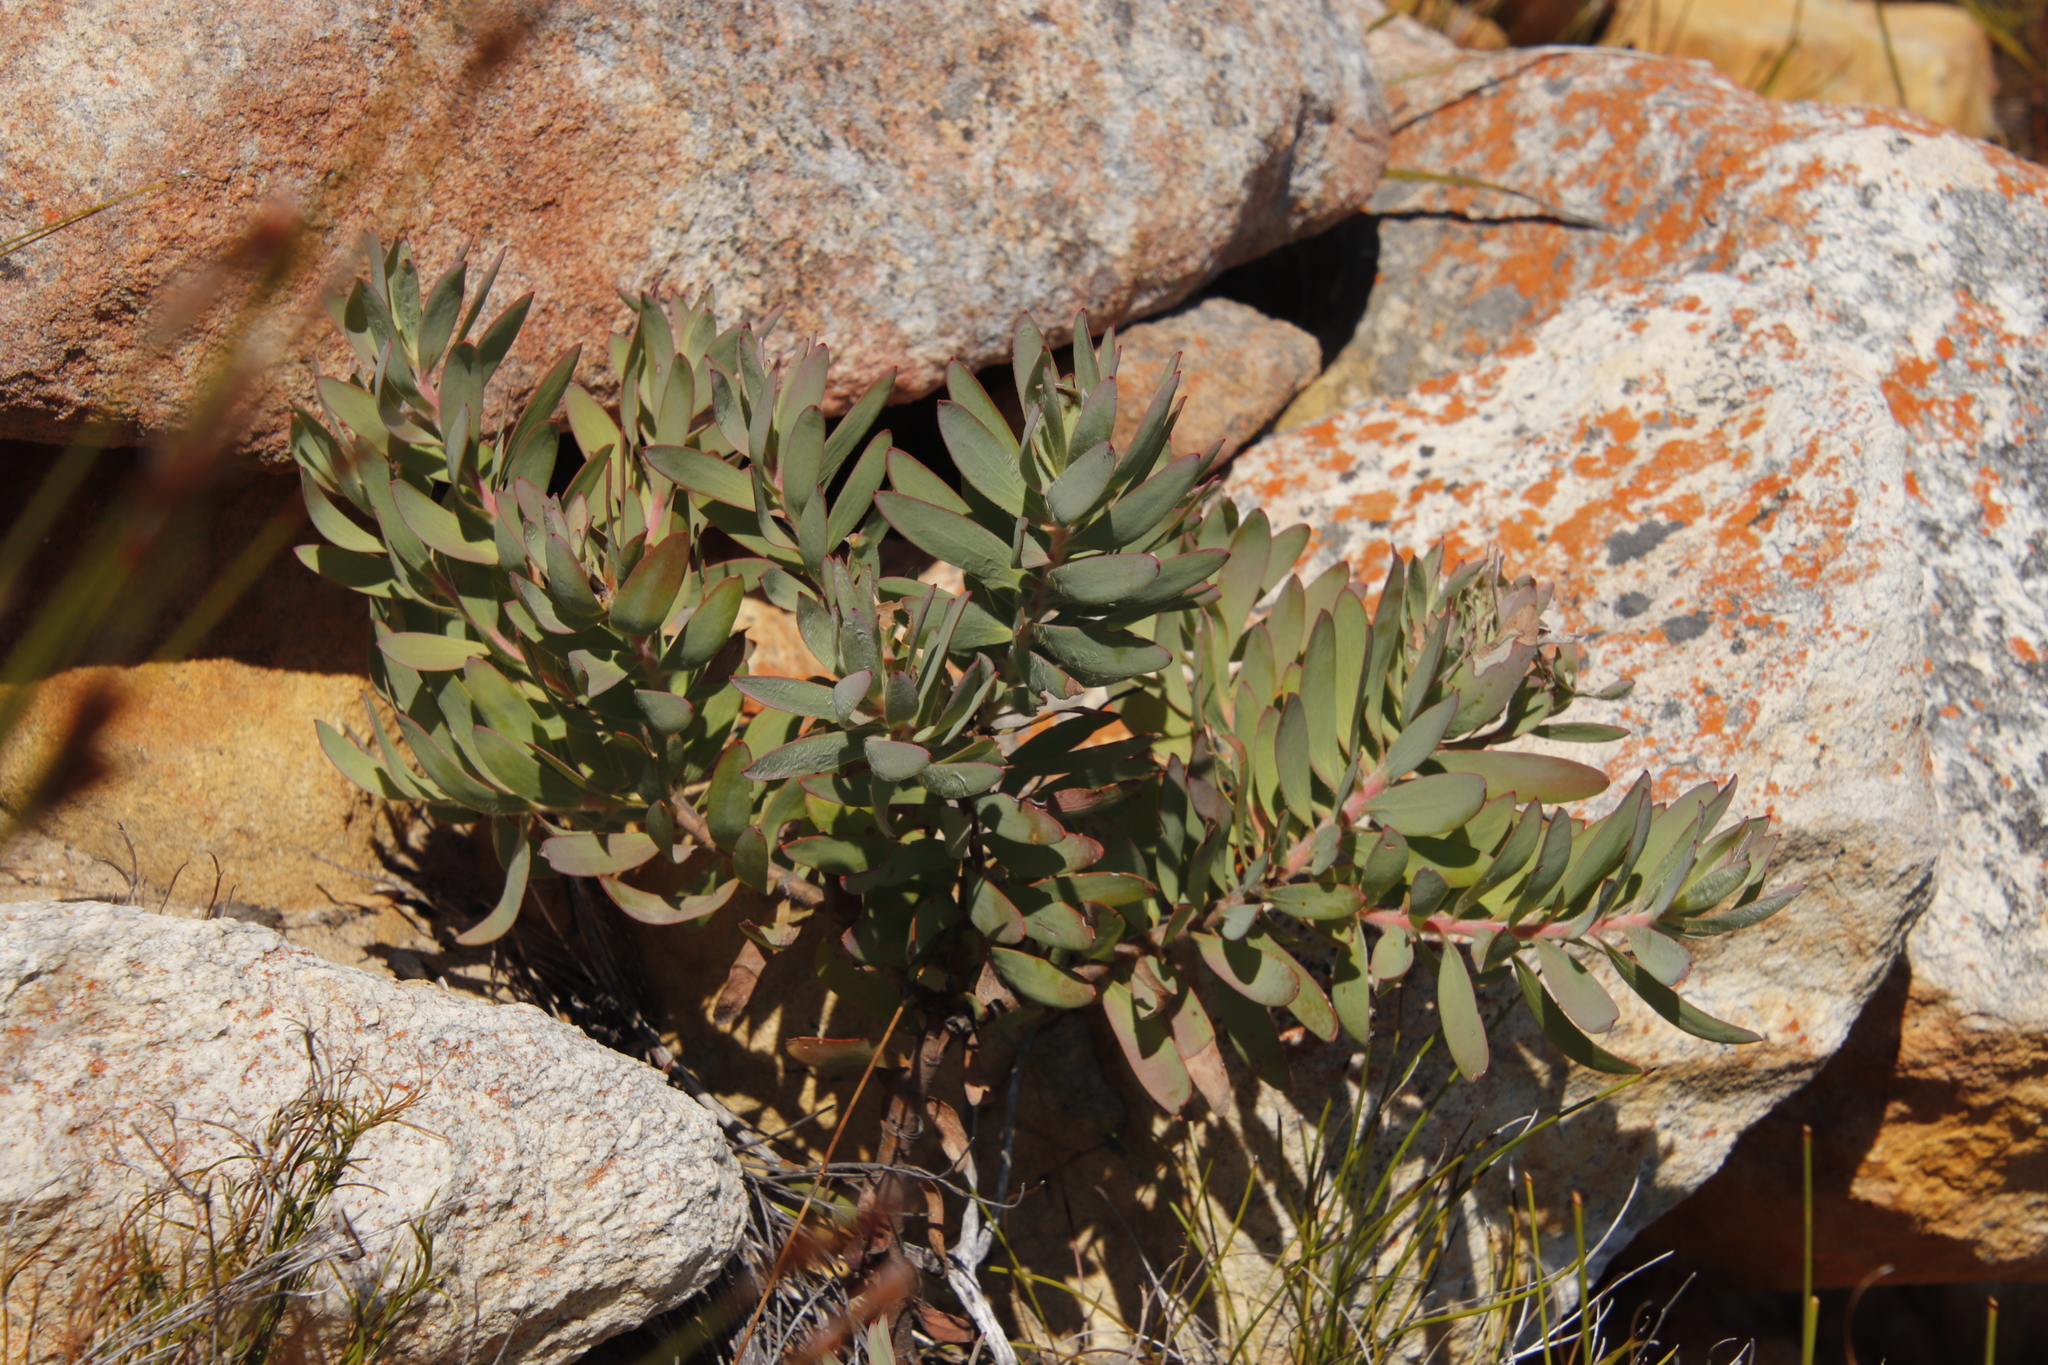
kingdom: Plantae
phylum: Tracheophyta
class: Magnoliopsida
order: Proteales
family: Proteaceae
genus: Leucadendron
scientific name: Leucadendron sessile
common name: Western sunbush
